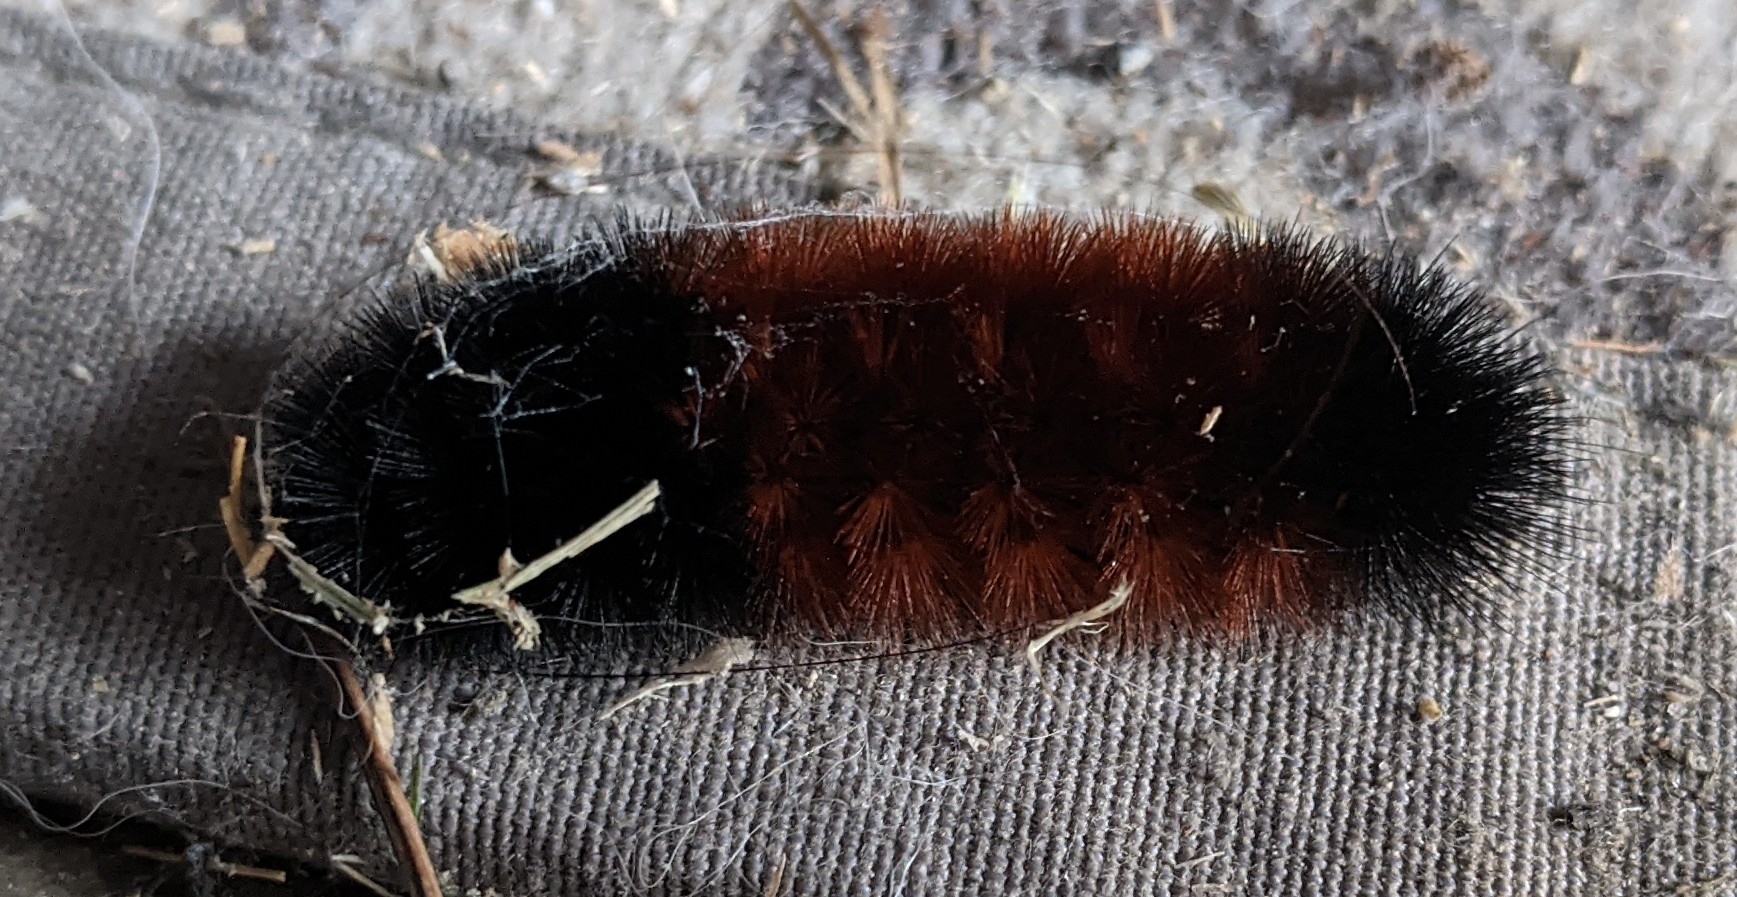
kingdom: Animalia
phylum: Arthropoda
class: Insecta
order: Lepidoptera
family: Erebidae
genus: Pyrrharctia
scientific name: Pyrrharctia isabella
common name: Isabella tiger moth
